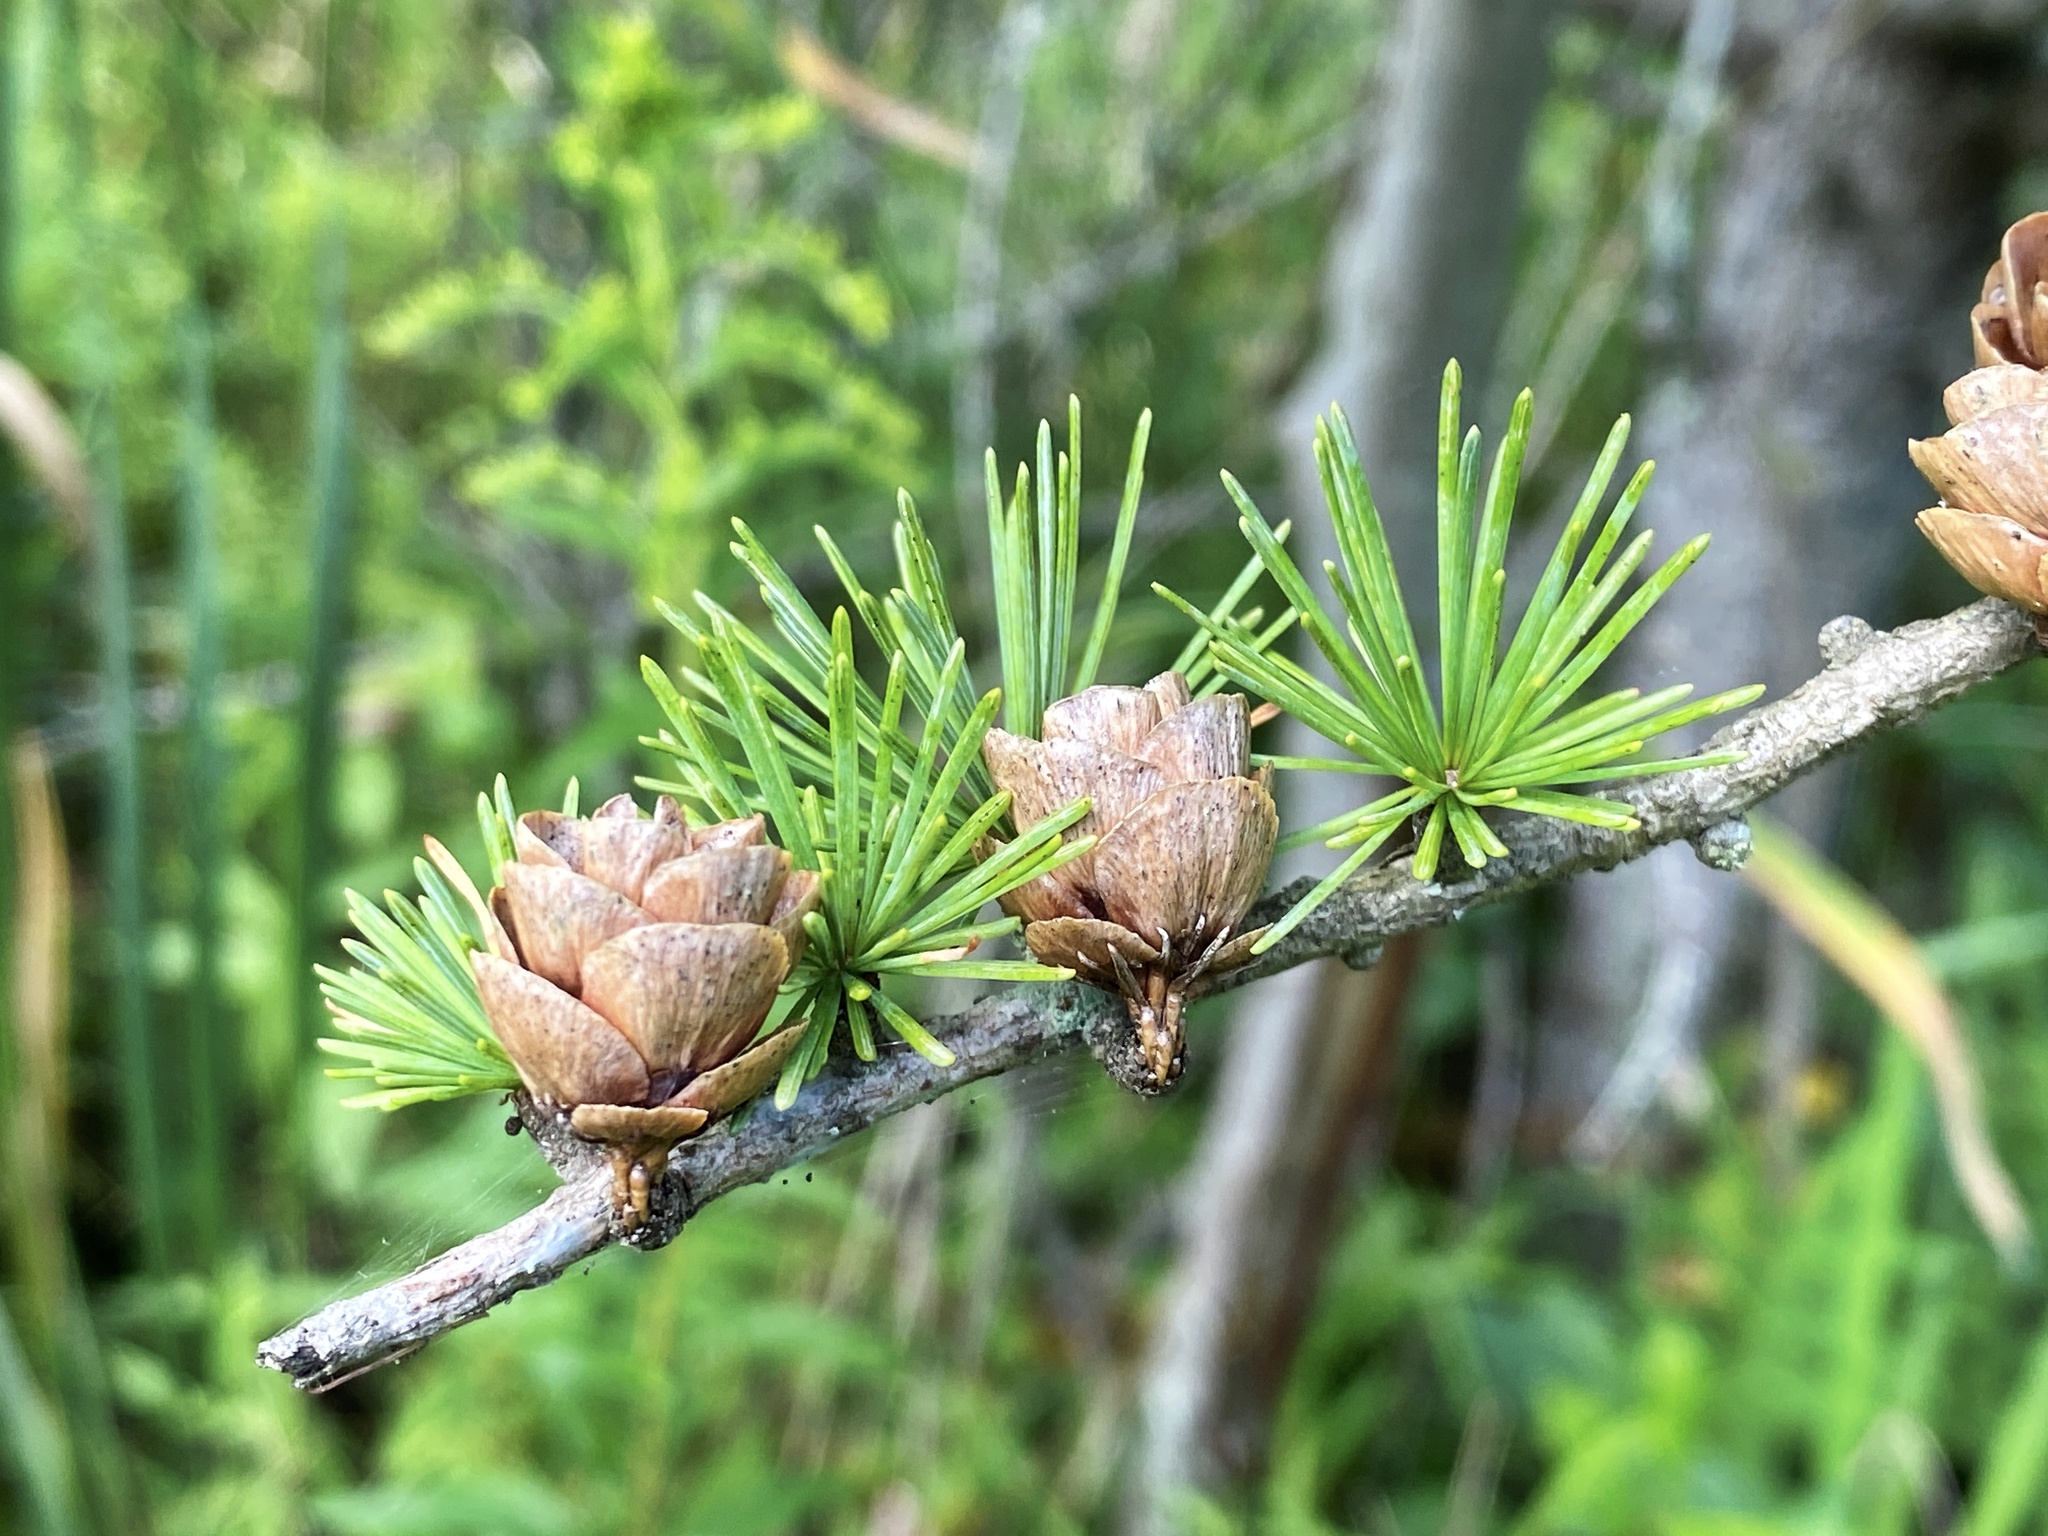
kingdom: Plantae
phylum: Tracheophyta
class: Pinopsida
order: Pinales
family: Pinaceae
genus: Larix
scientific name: Larix laricina
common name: American larch
